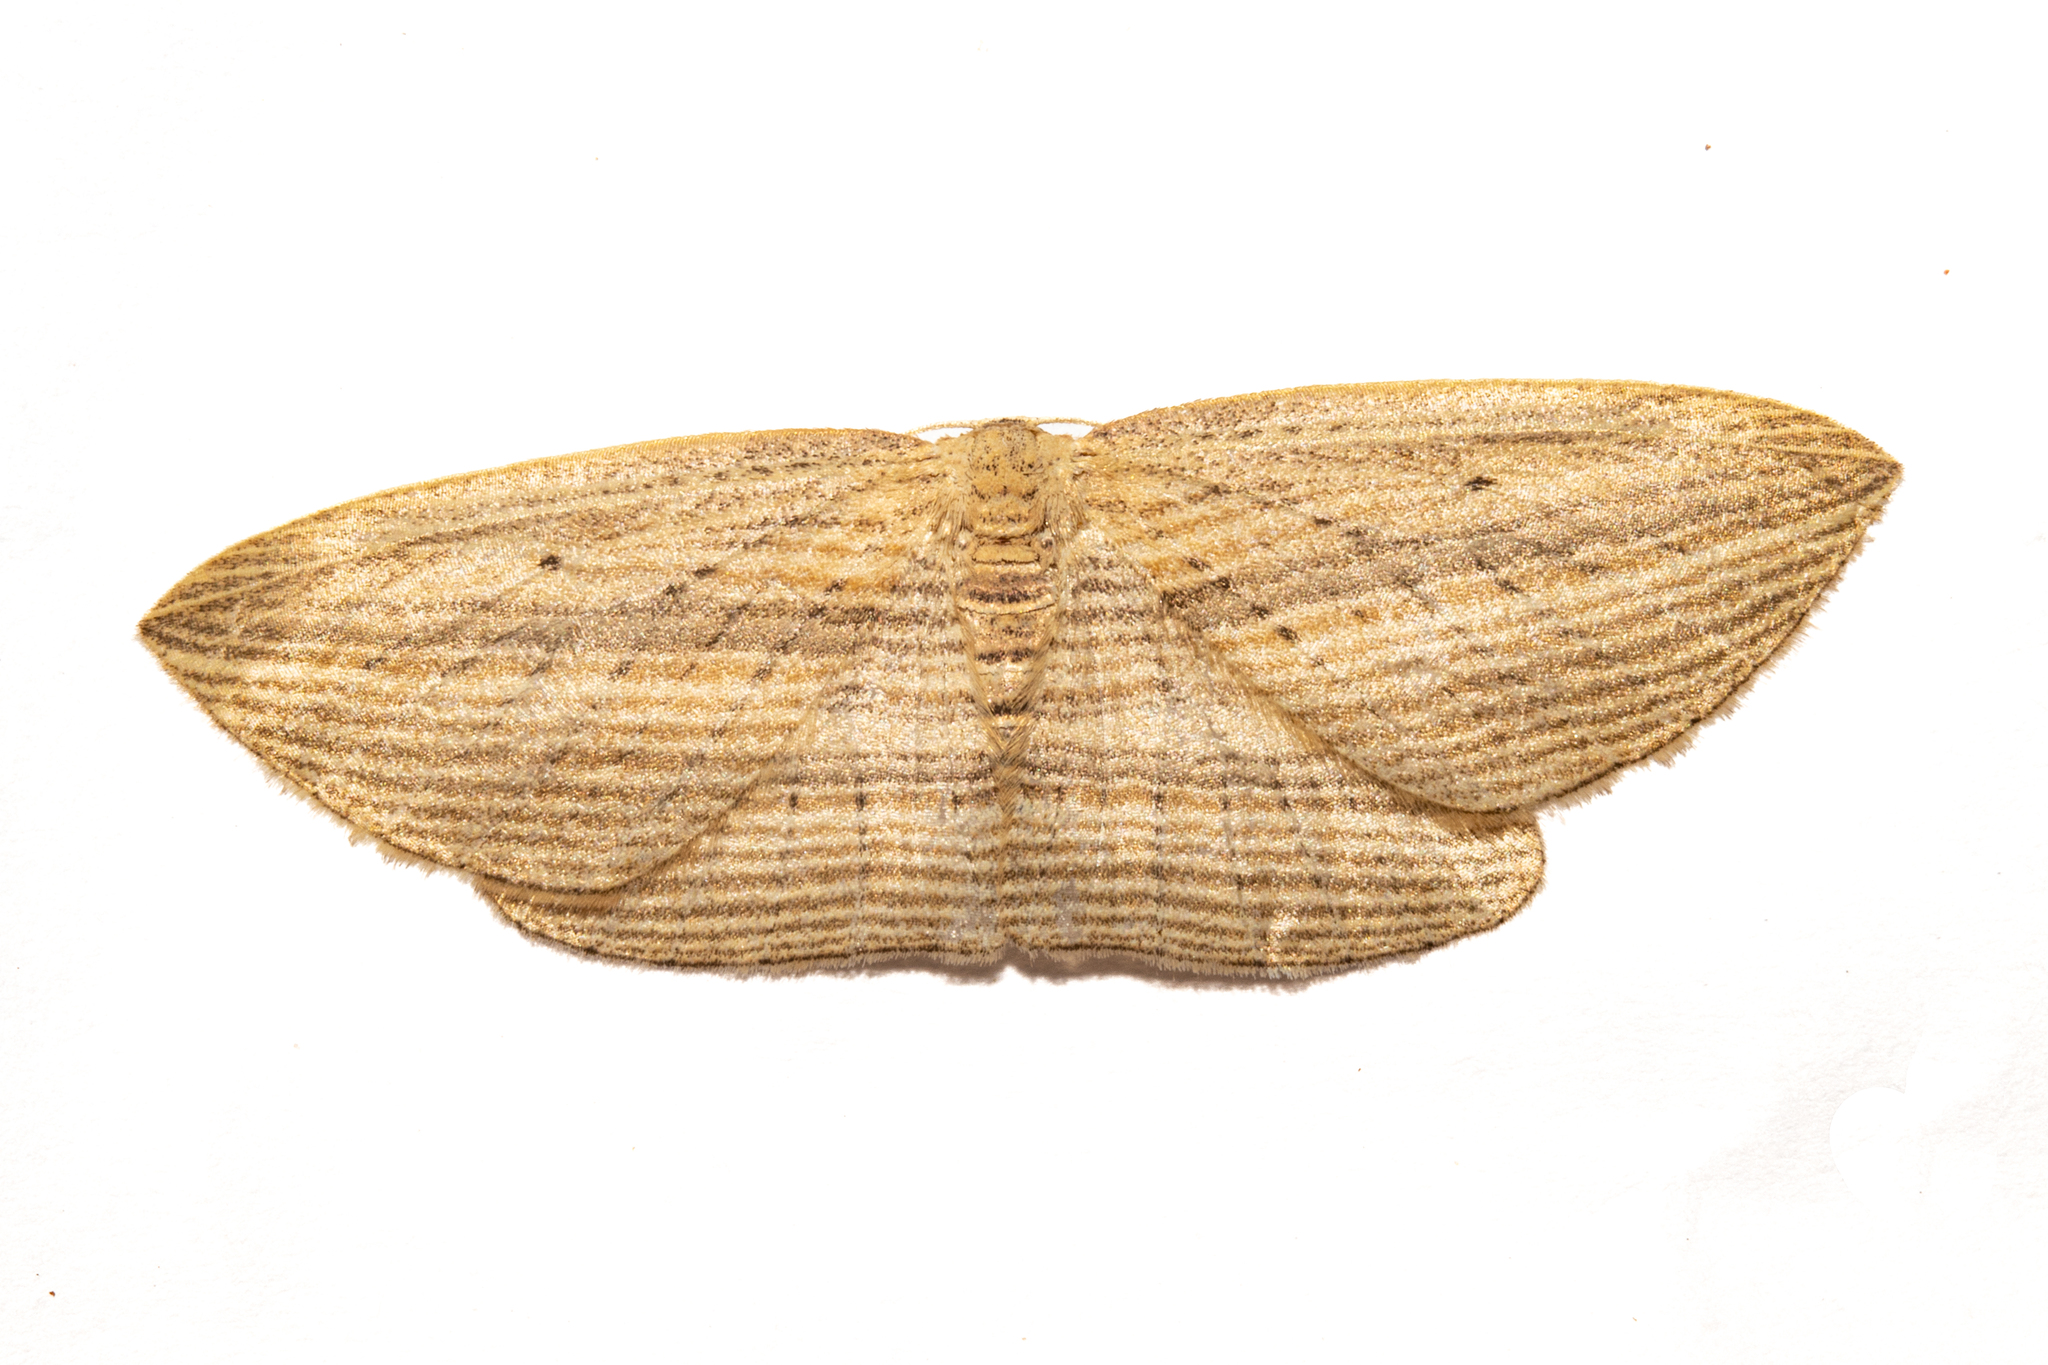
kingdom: Animalia
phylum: Arthropoda
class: Insecta
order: Lepidoptera
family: Geometridae
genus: Epiphryne
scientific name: Epiphryne verriculata
